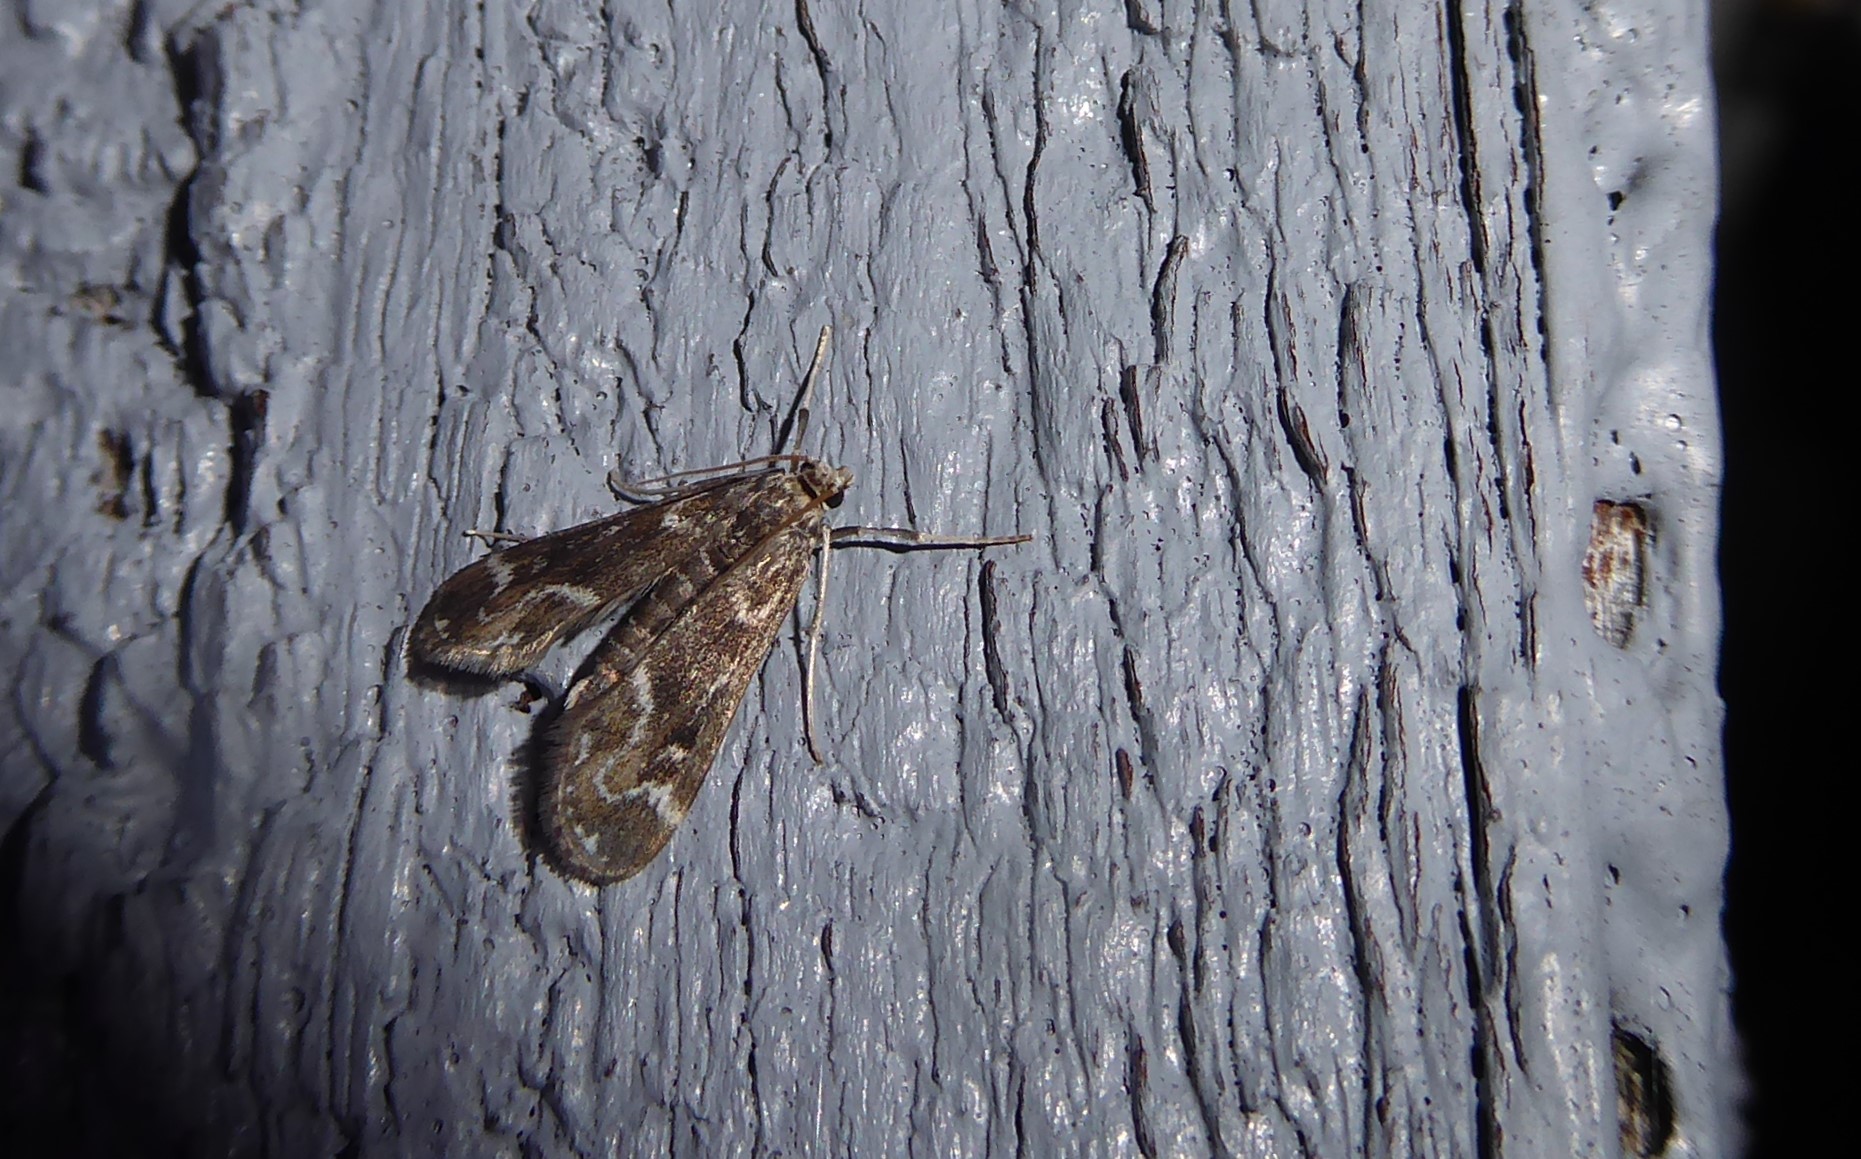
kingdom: Animalia
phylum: Arthropoda
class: Insecta
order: Lepidoptera
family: Crambidae
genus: Hygraula
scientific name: Hygraula nitens
